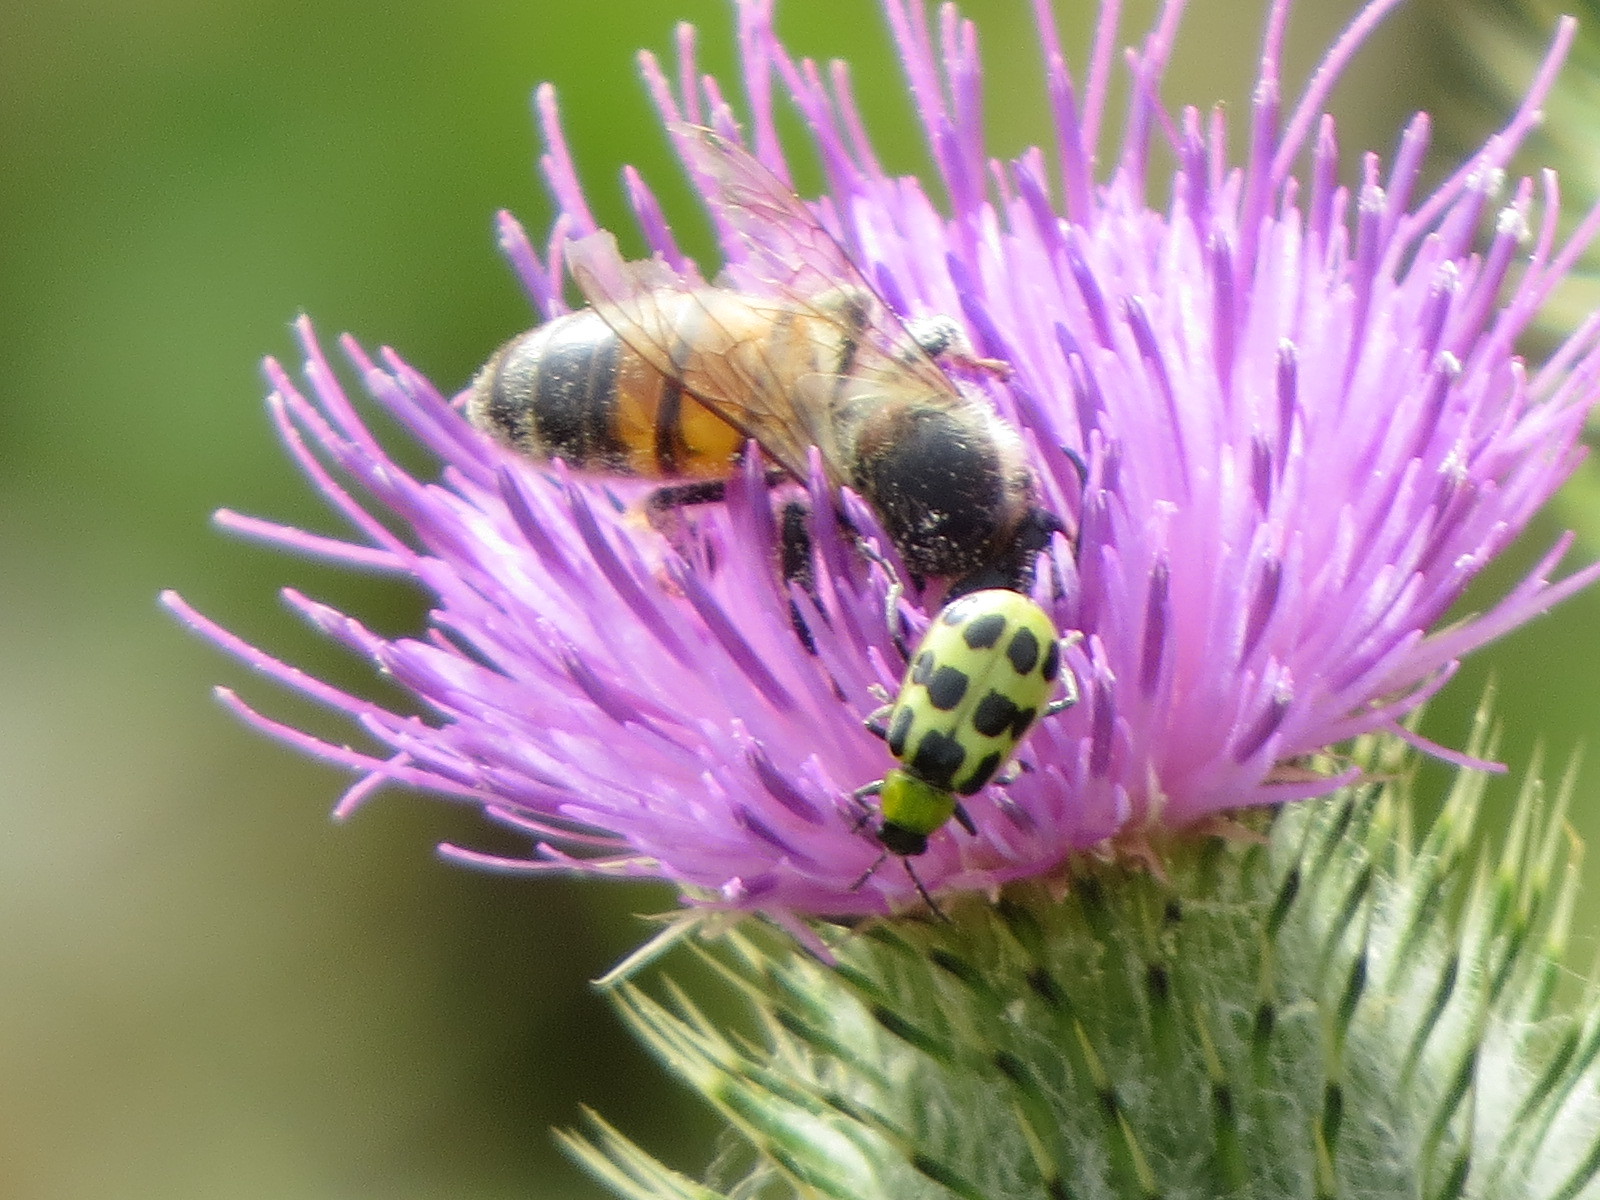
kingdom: Animalia
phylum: Arthropoda
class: Insecta
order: Coleoptera
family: Chrysomelidae
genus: Diabrotica
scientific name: Diabrotica undecimpunctata
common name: Spotted cucumber beetle
